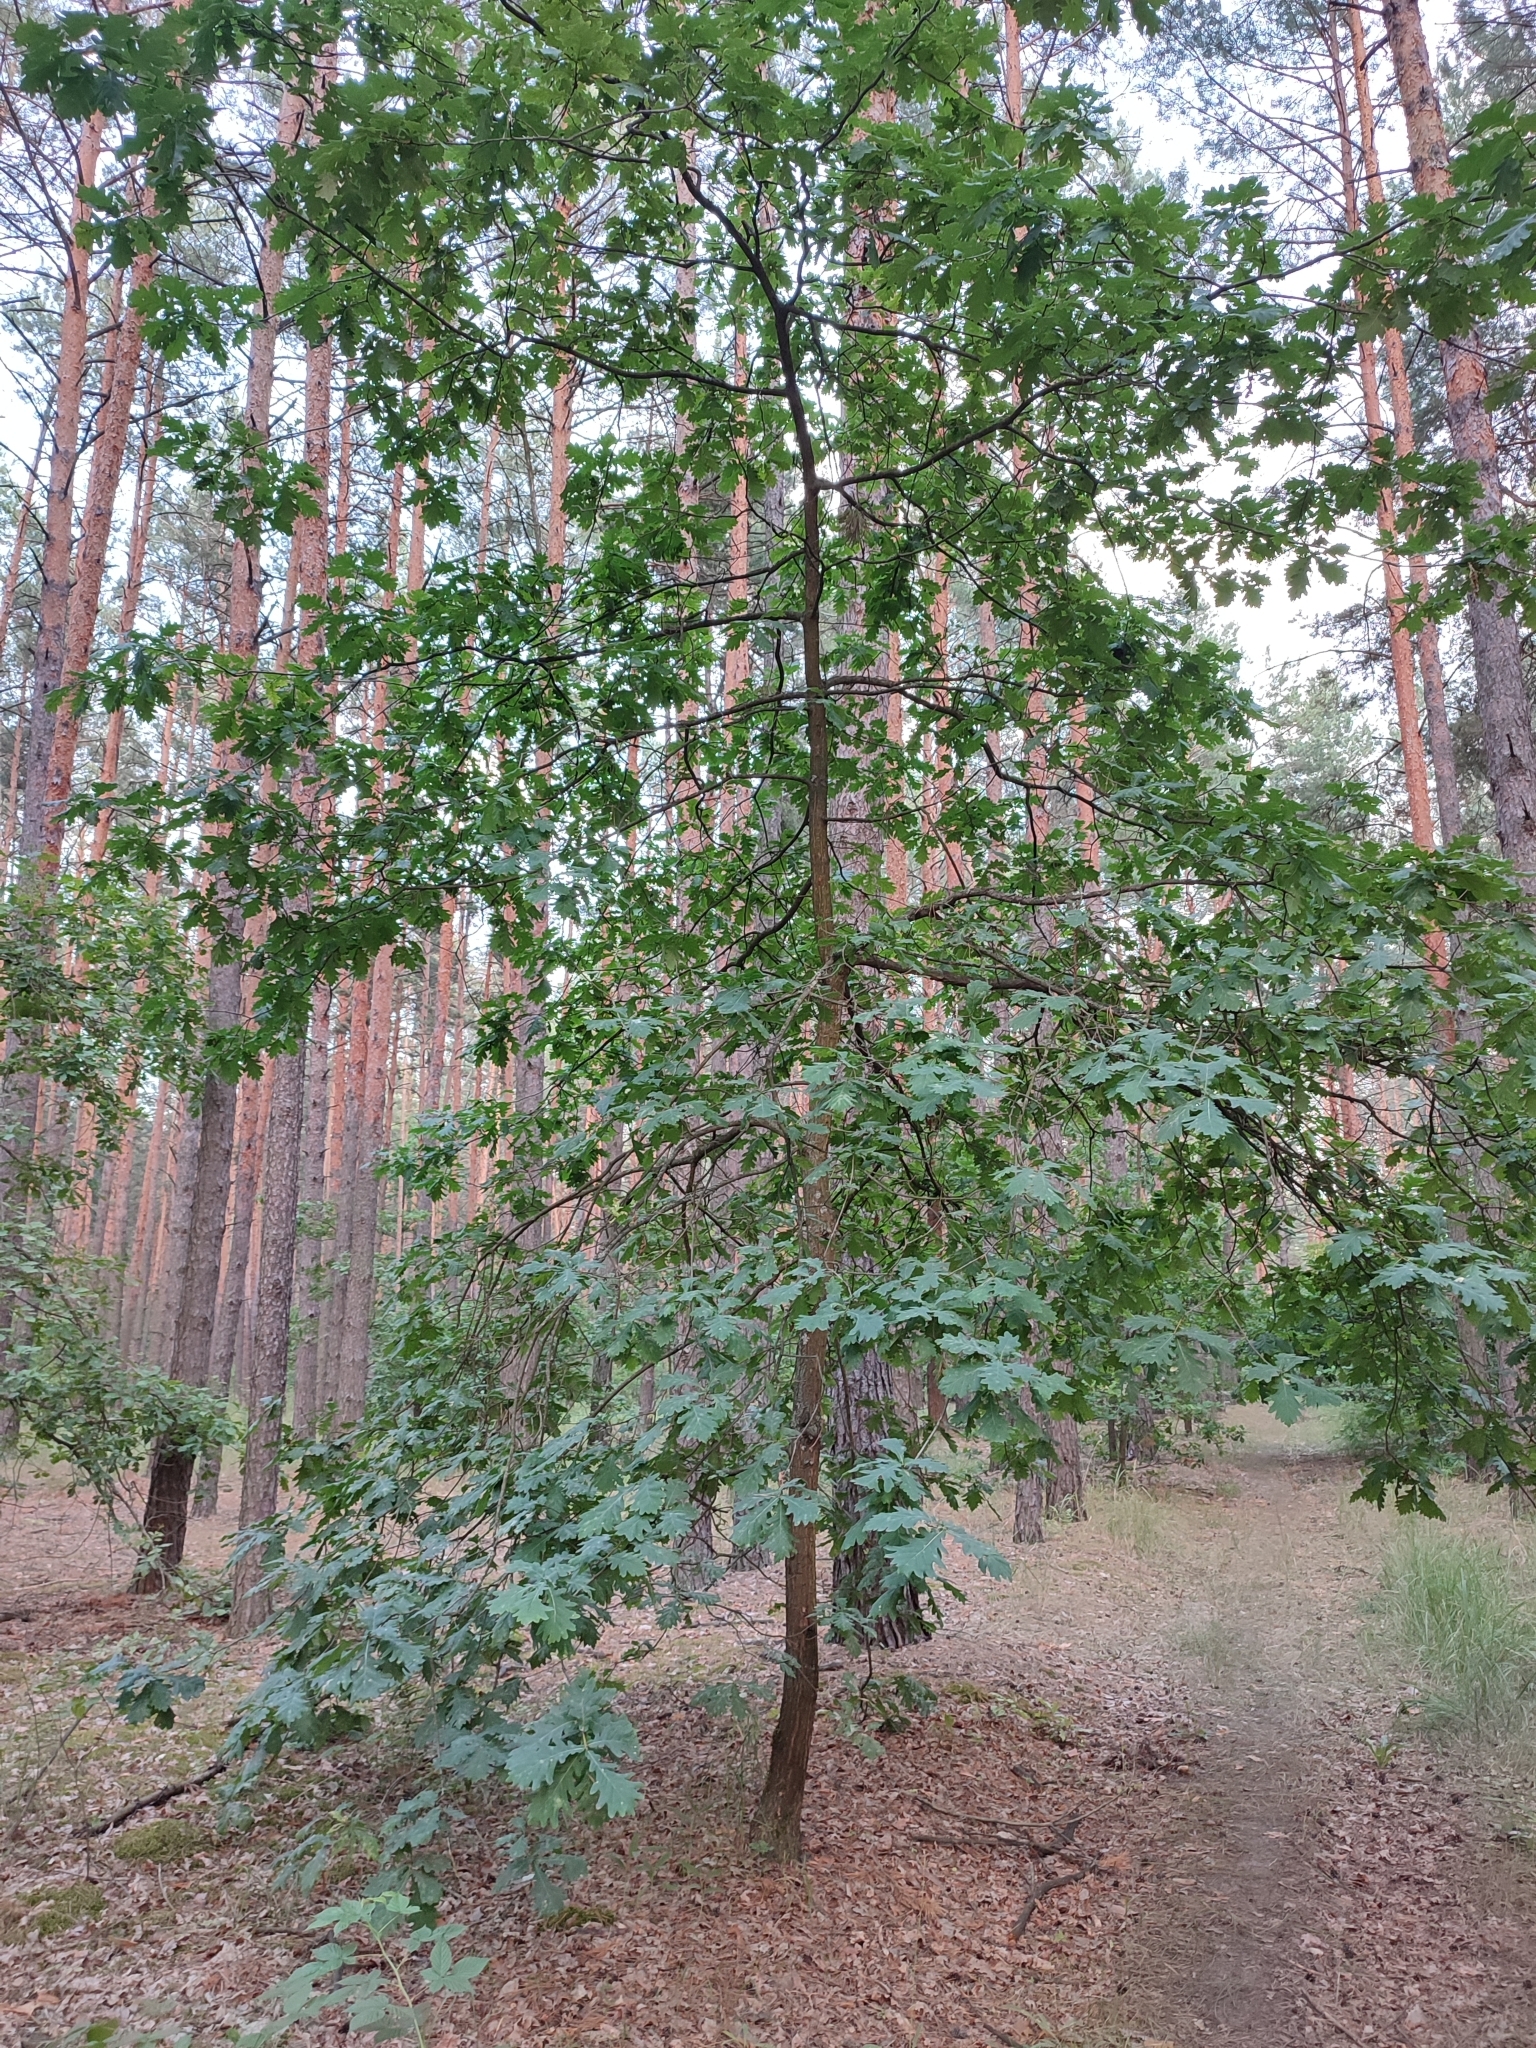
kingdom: Plantae
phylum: Tracheophyta
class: Magnoliopsida
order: Fagales
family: Fagaceae
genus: Quercus
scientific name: Quercus robur
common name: Pedunculate oak
